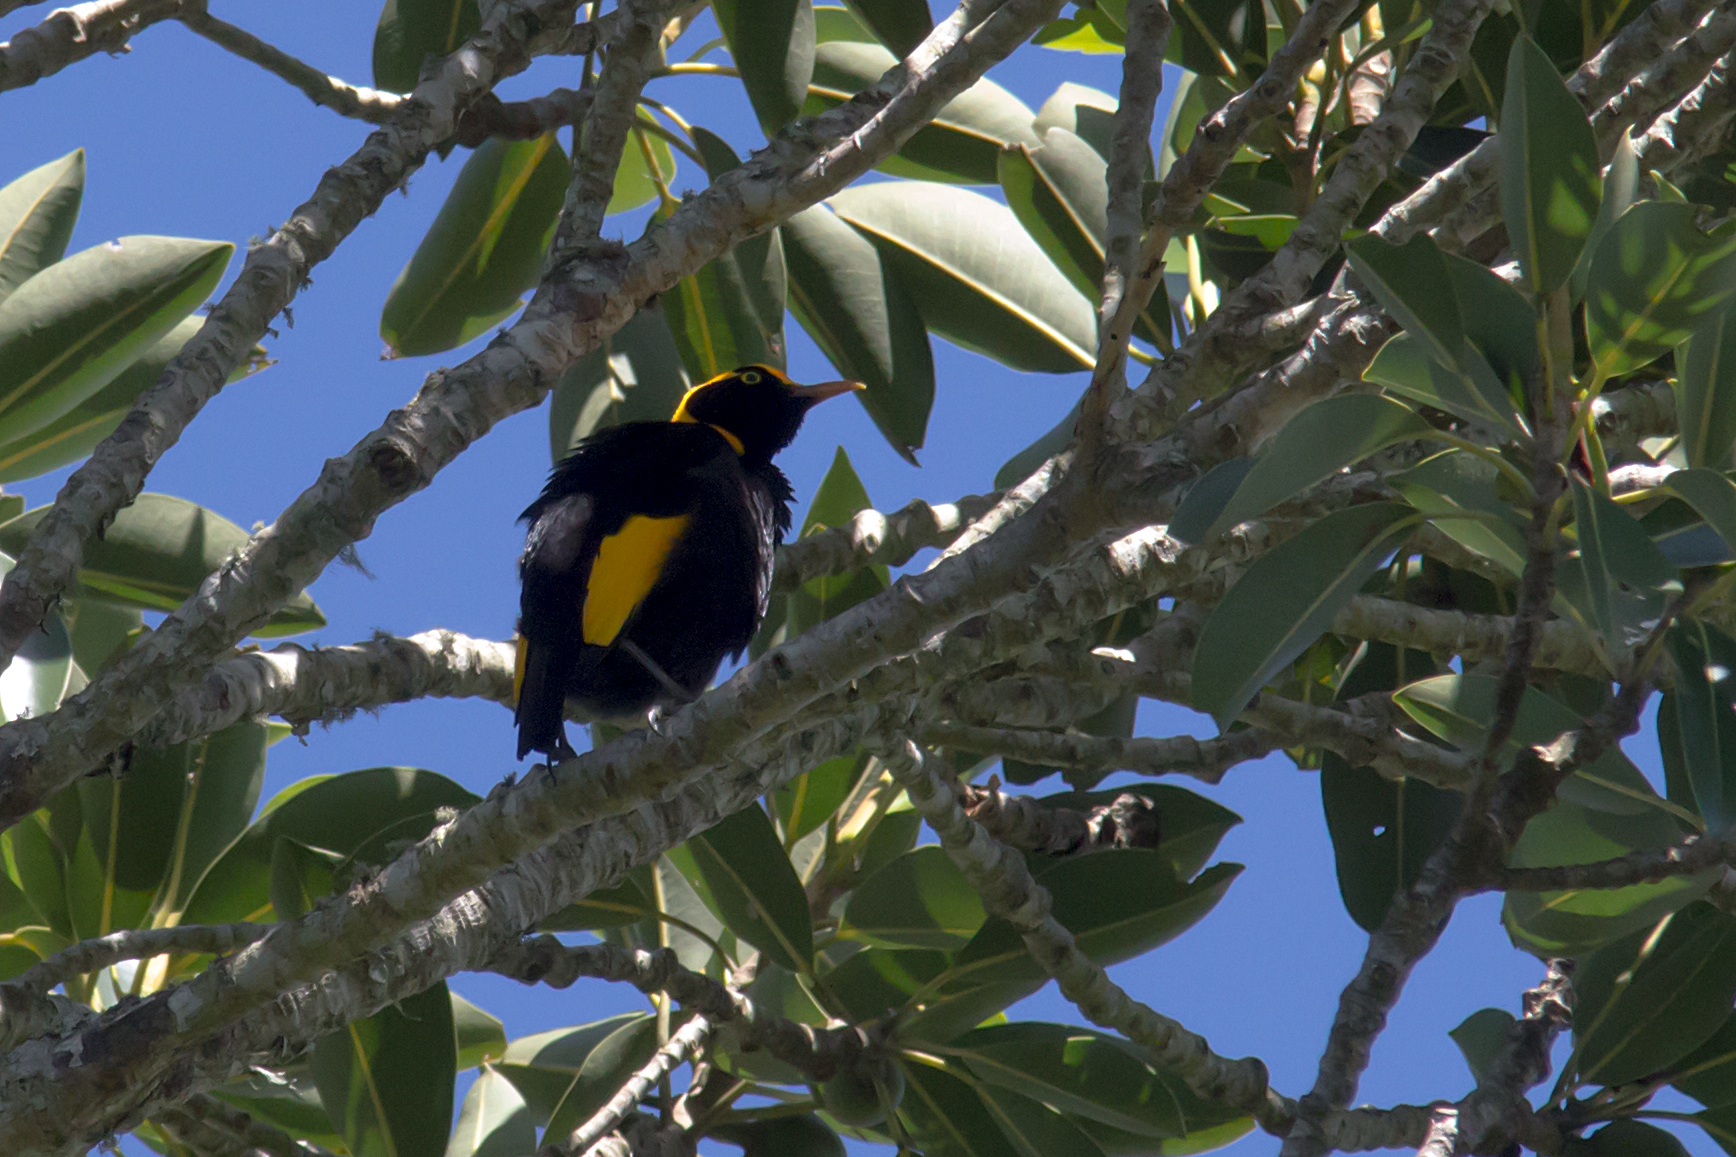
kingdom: Animalia
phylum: Chordata
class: Aves
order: Passeriformes
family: Ptilonorhynchidae
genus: Sericulus
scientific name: Sericulus chrysocephalus
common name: Regent bowerbird
